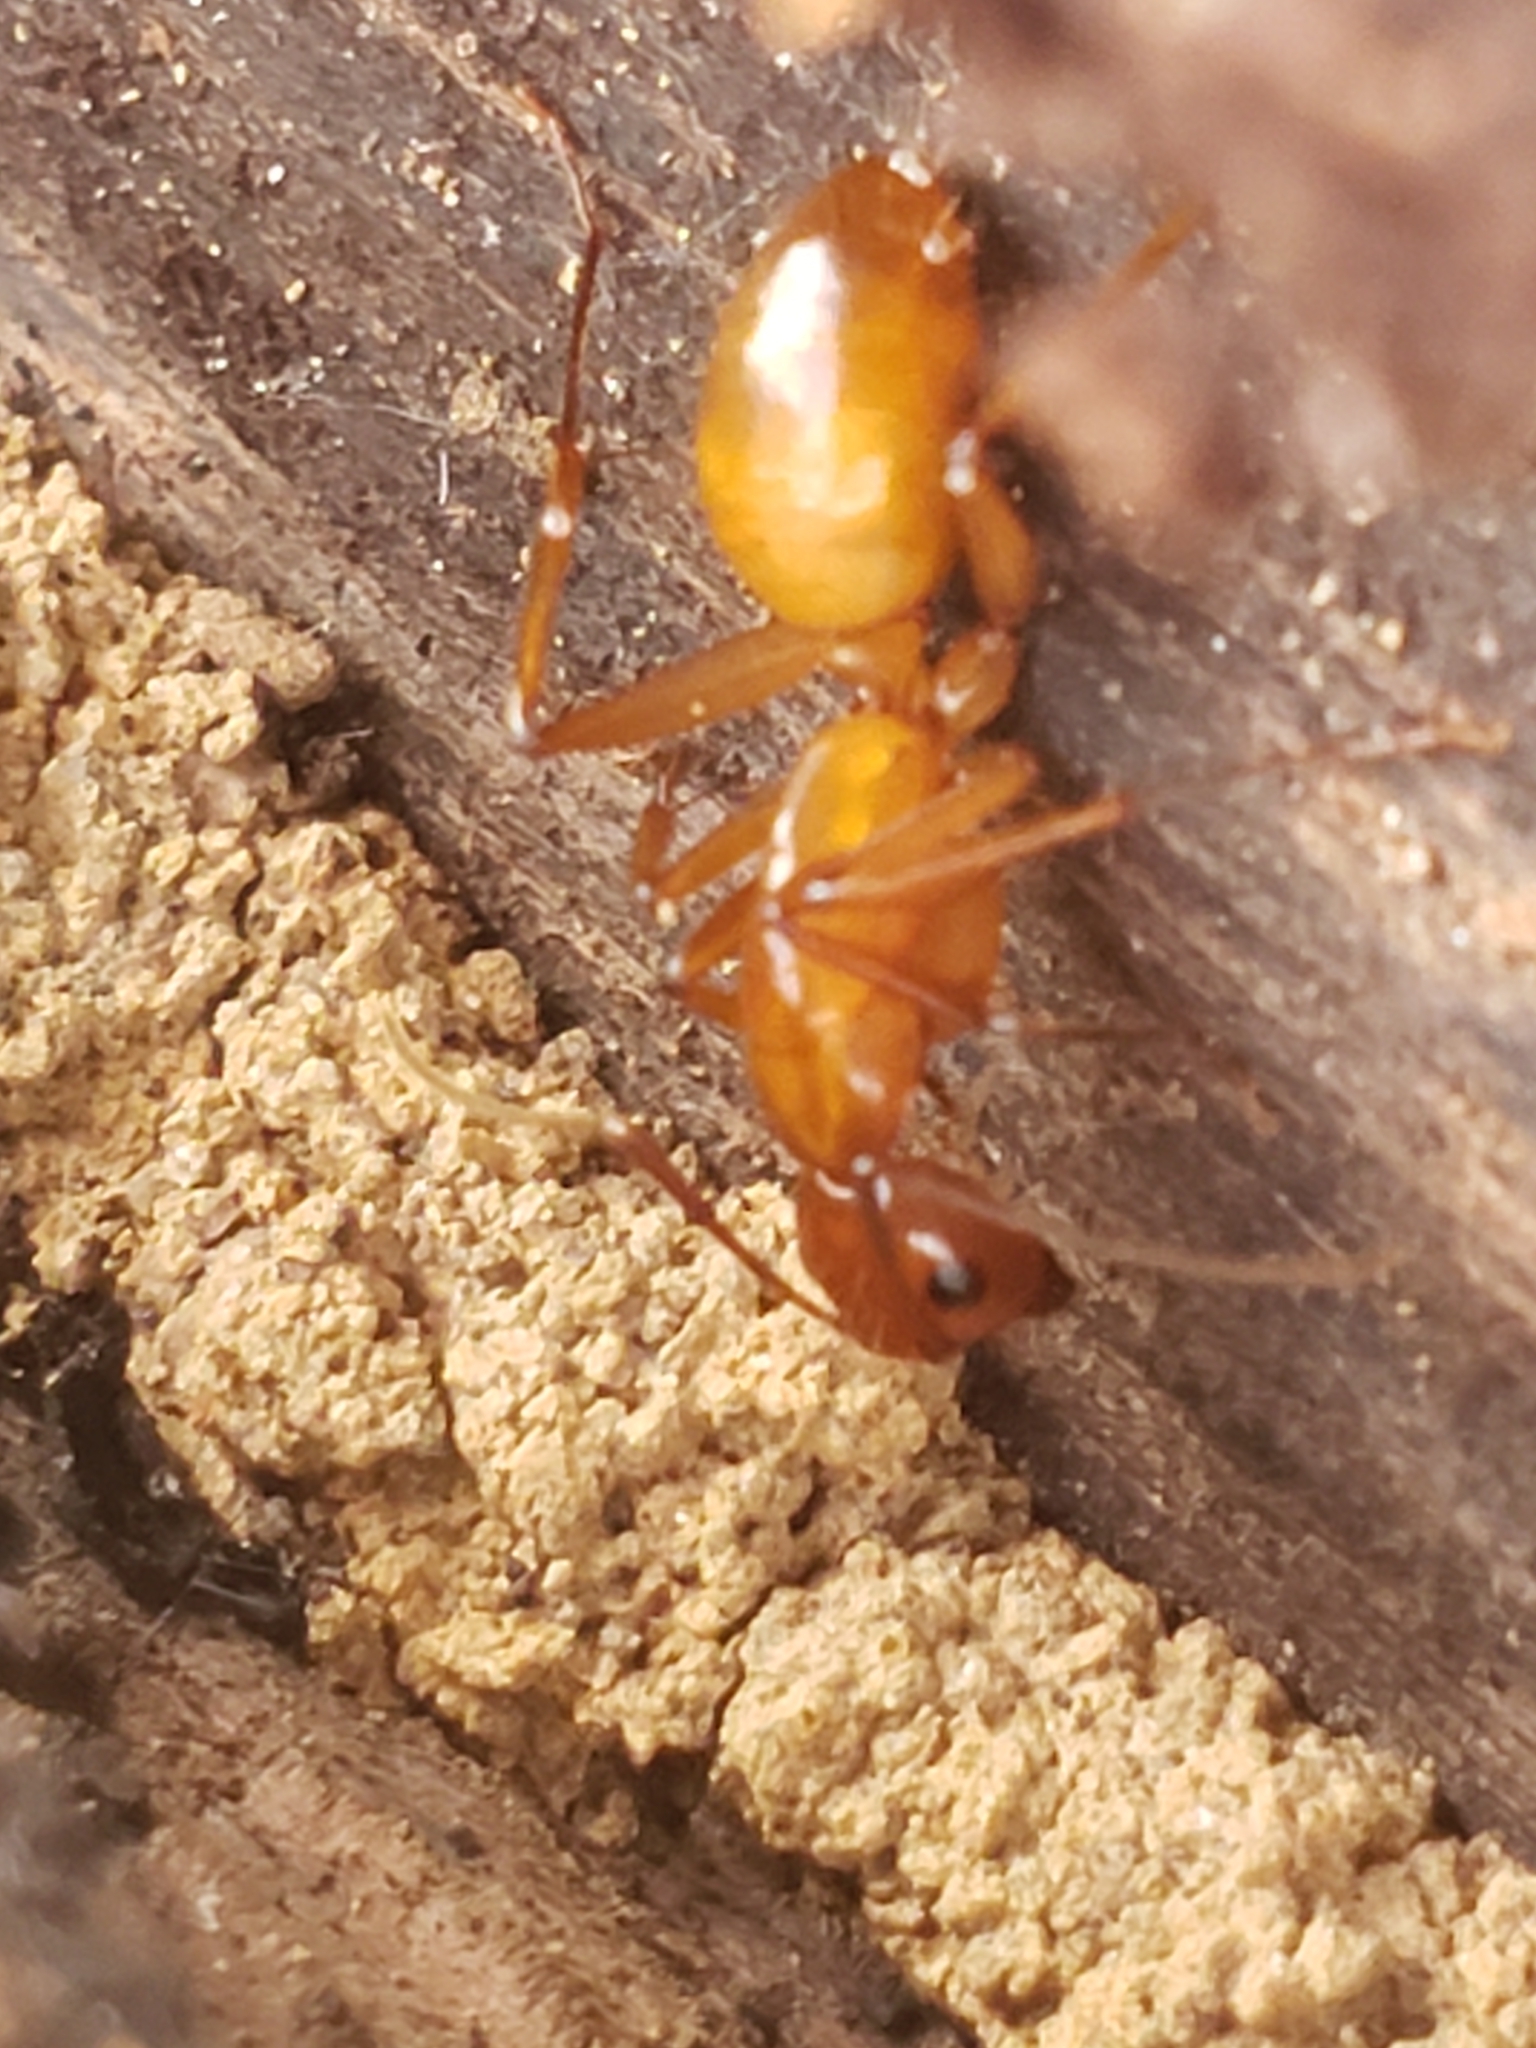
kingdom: Animalia
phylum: Arthropoda
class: Insecta
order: Hymenoptera
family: Formicidae
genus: Camponotus
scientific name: Camponotus castaneus
